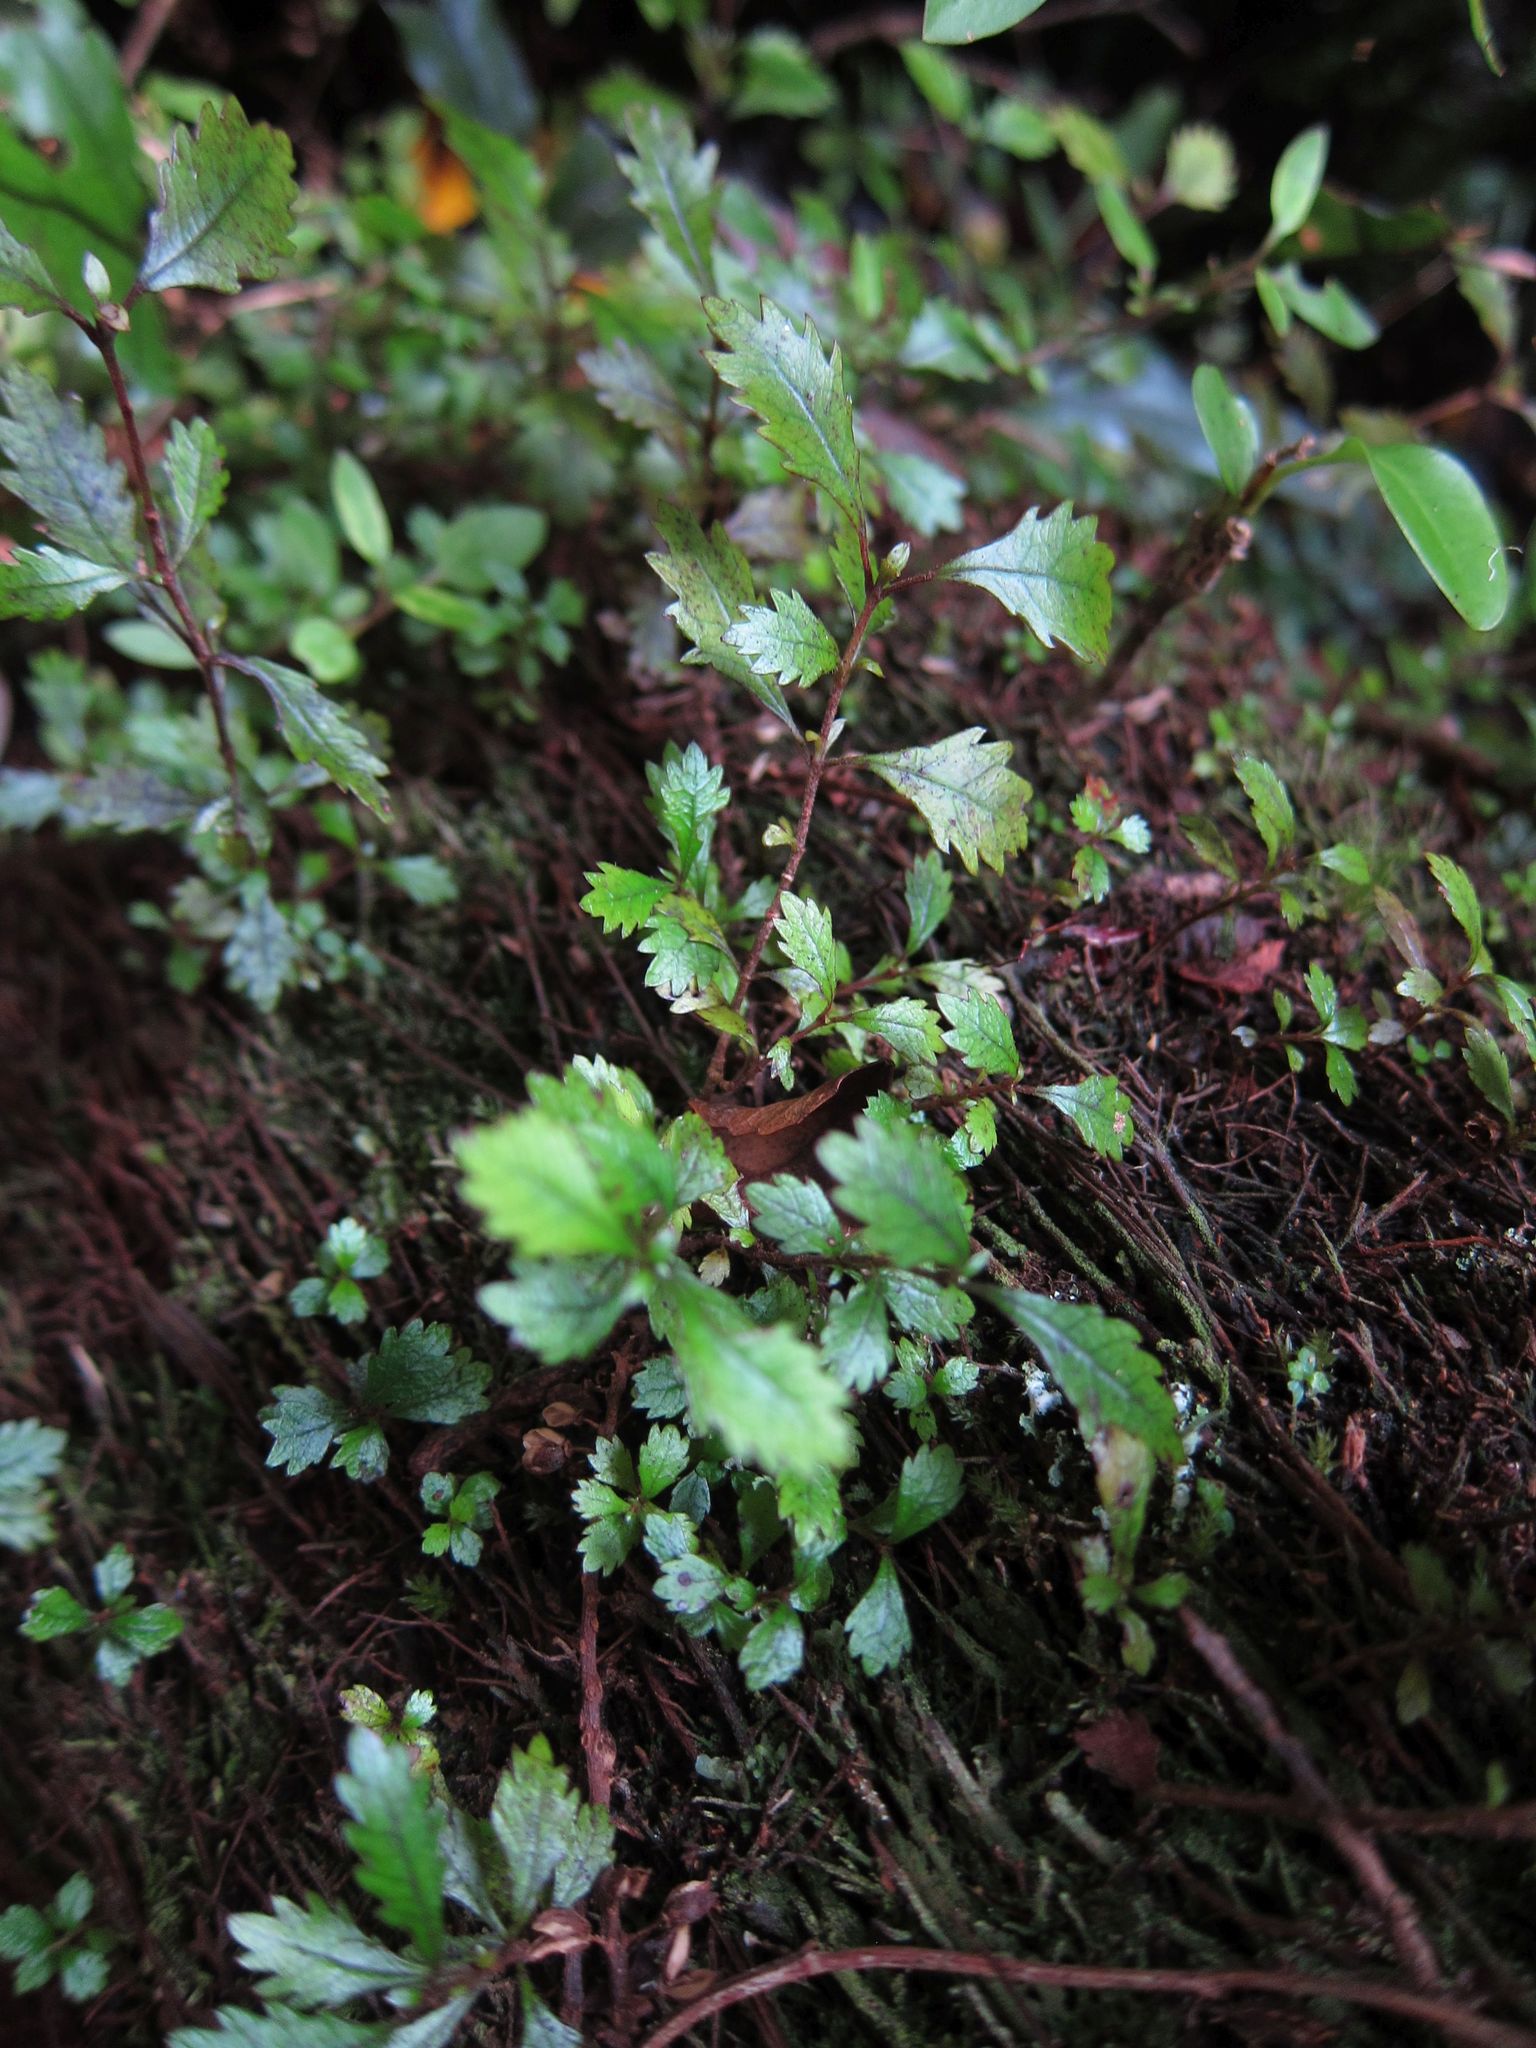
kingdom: Plantae
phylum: Tracheophyta
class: Magnoliopsida
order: Oxalidales
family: Cunoniaceae
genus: Pterophylla
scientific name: Pterophylla racemosa
